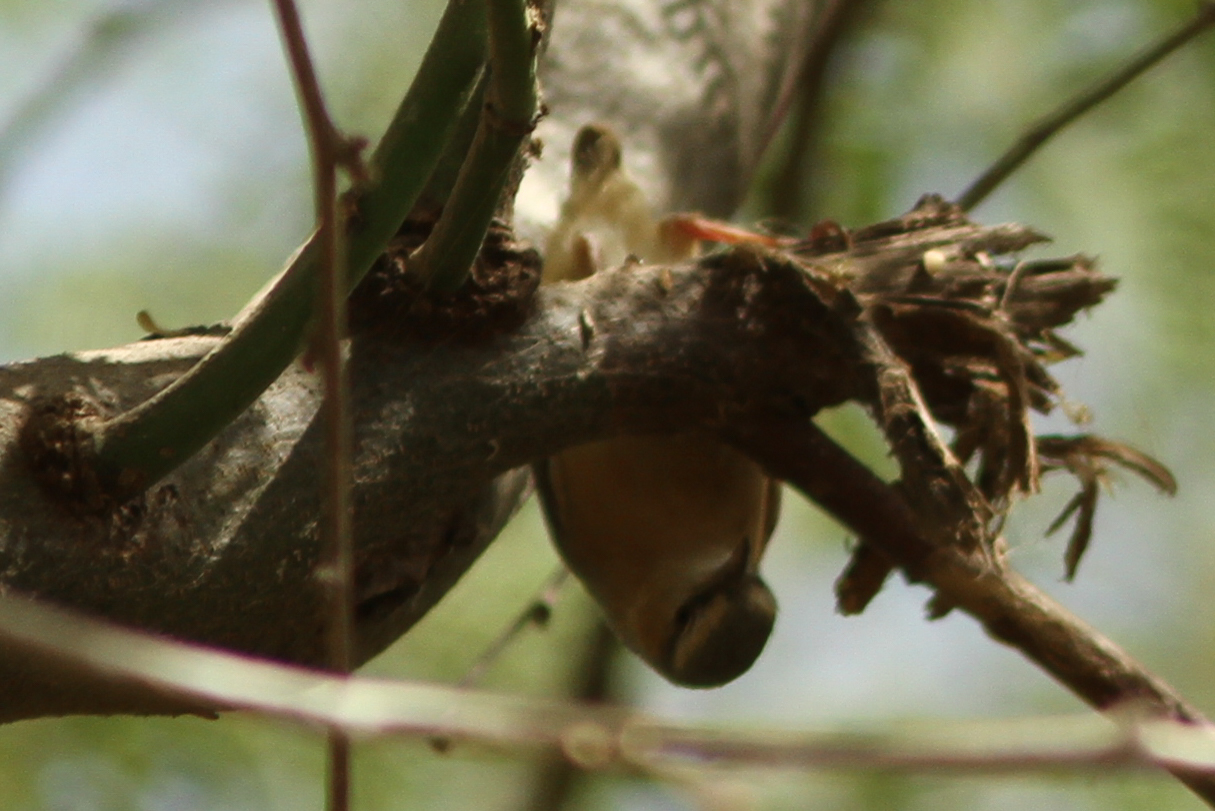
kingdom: Animalia
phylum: Chordata
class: Aves
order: Passeriformes
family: Macrosphenidae
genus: Sylvietta
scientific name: Sylvietta brachyura
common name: Northern crombec
